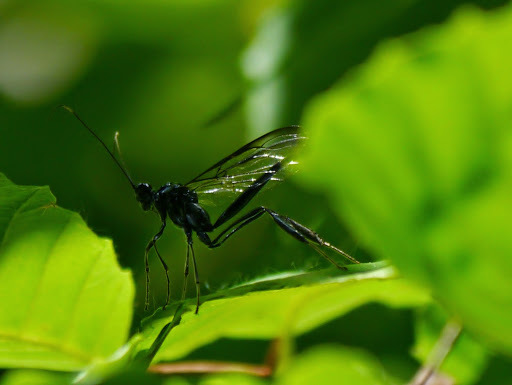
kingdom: Animalia
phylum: Arthropoda
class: Insecta
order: Hymenoptera
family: Pelecinidae
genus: Pelecinus
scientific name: Pelecinus polyturator
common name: American pelecinid wasp
